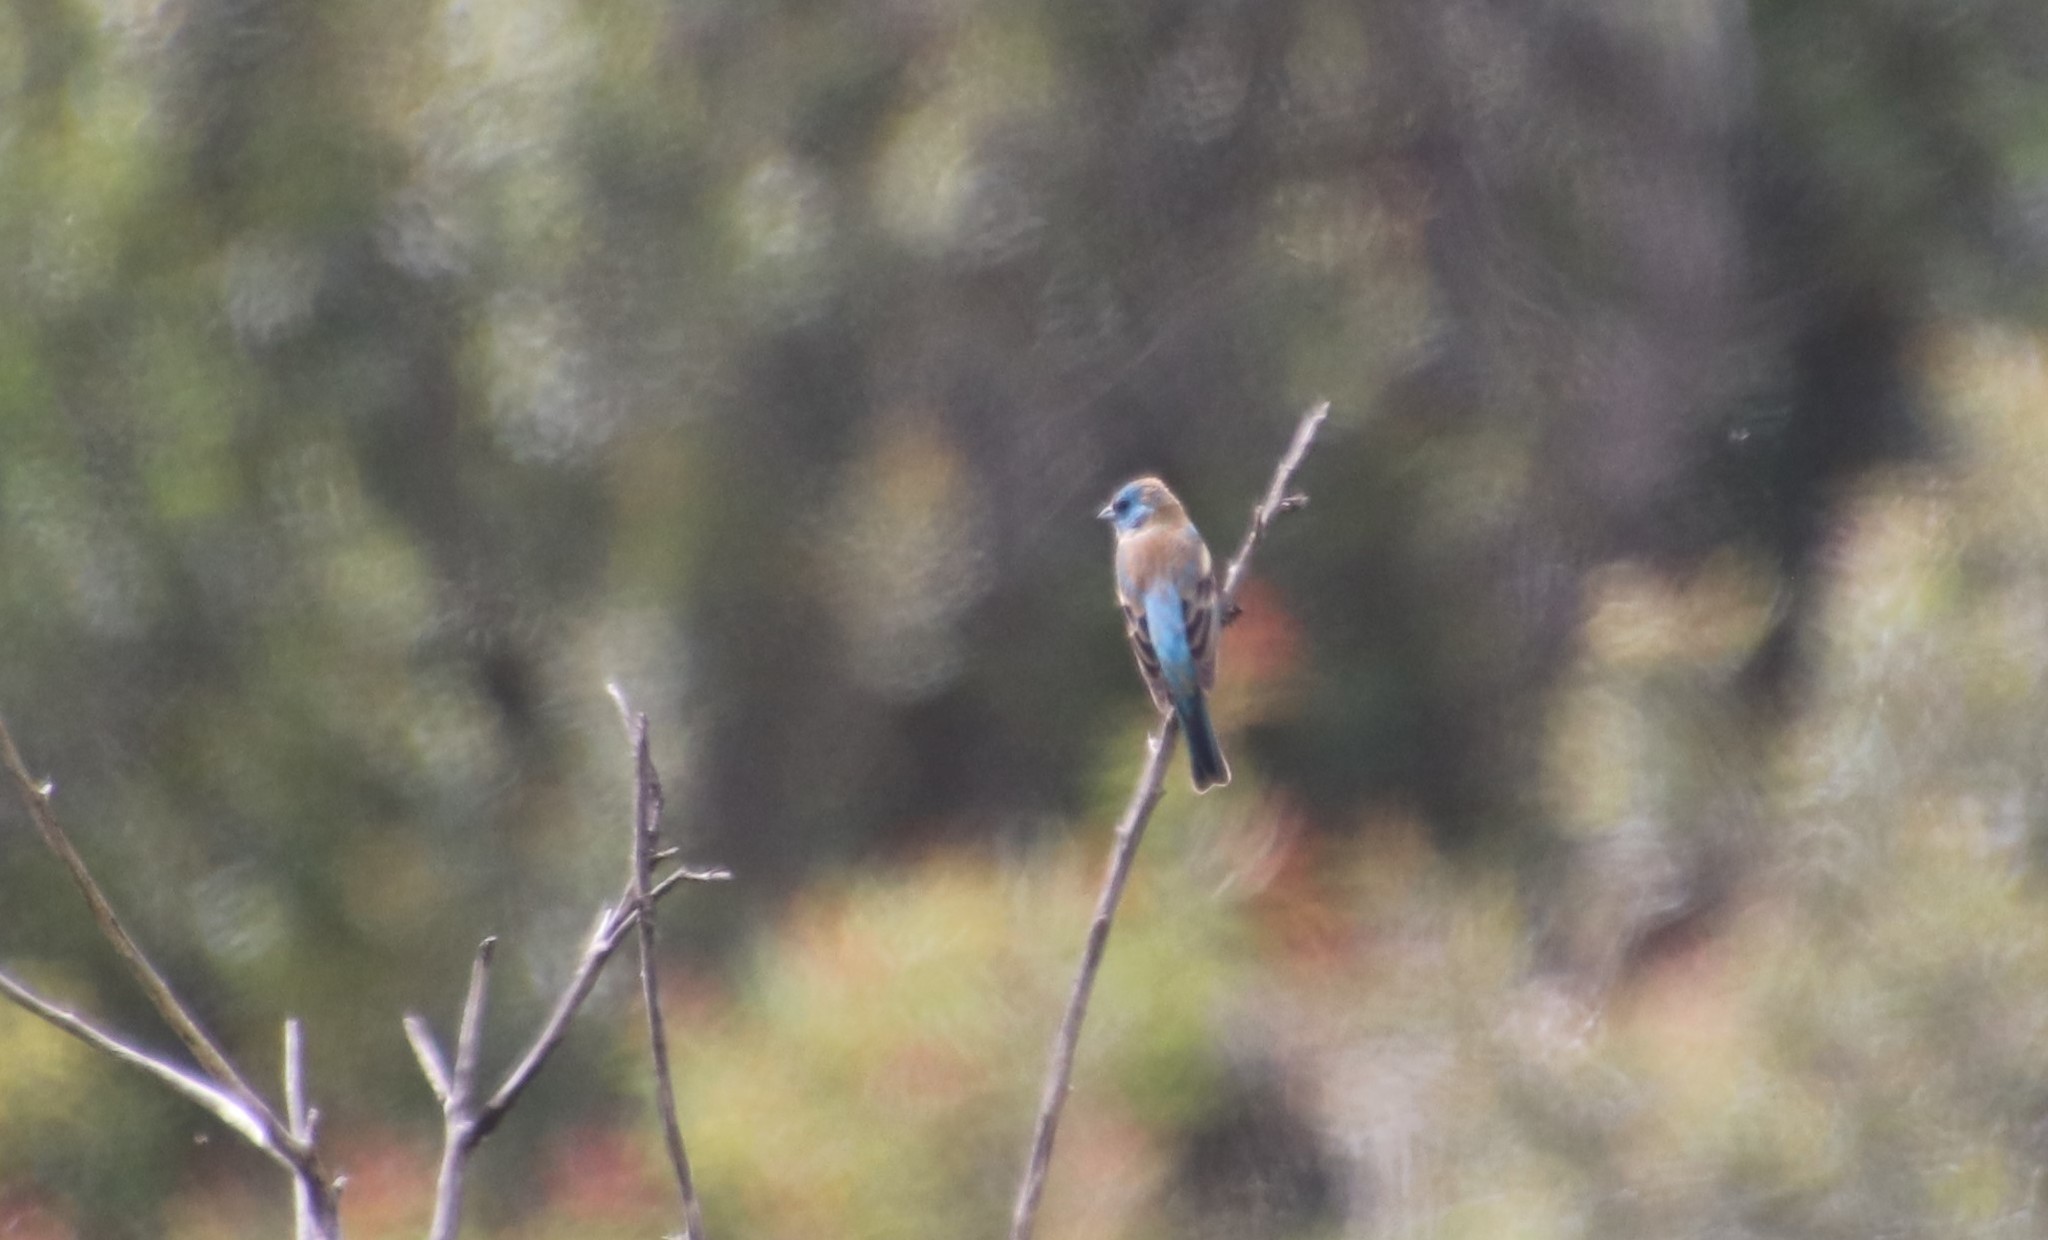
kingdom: Animalia
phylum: Chordata
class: Aves
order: Passeriformes
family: Cardinalidae
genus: Passerina
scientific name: Passerina amoena
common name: Lazuli bunting
